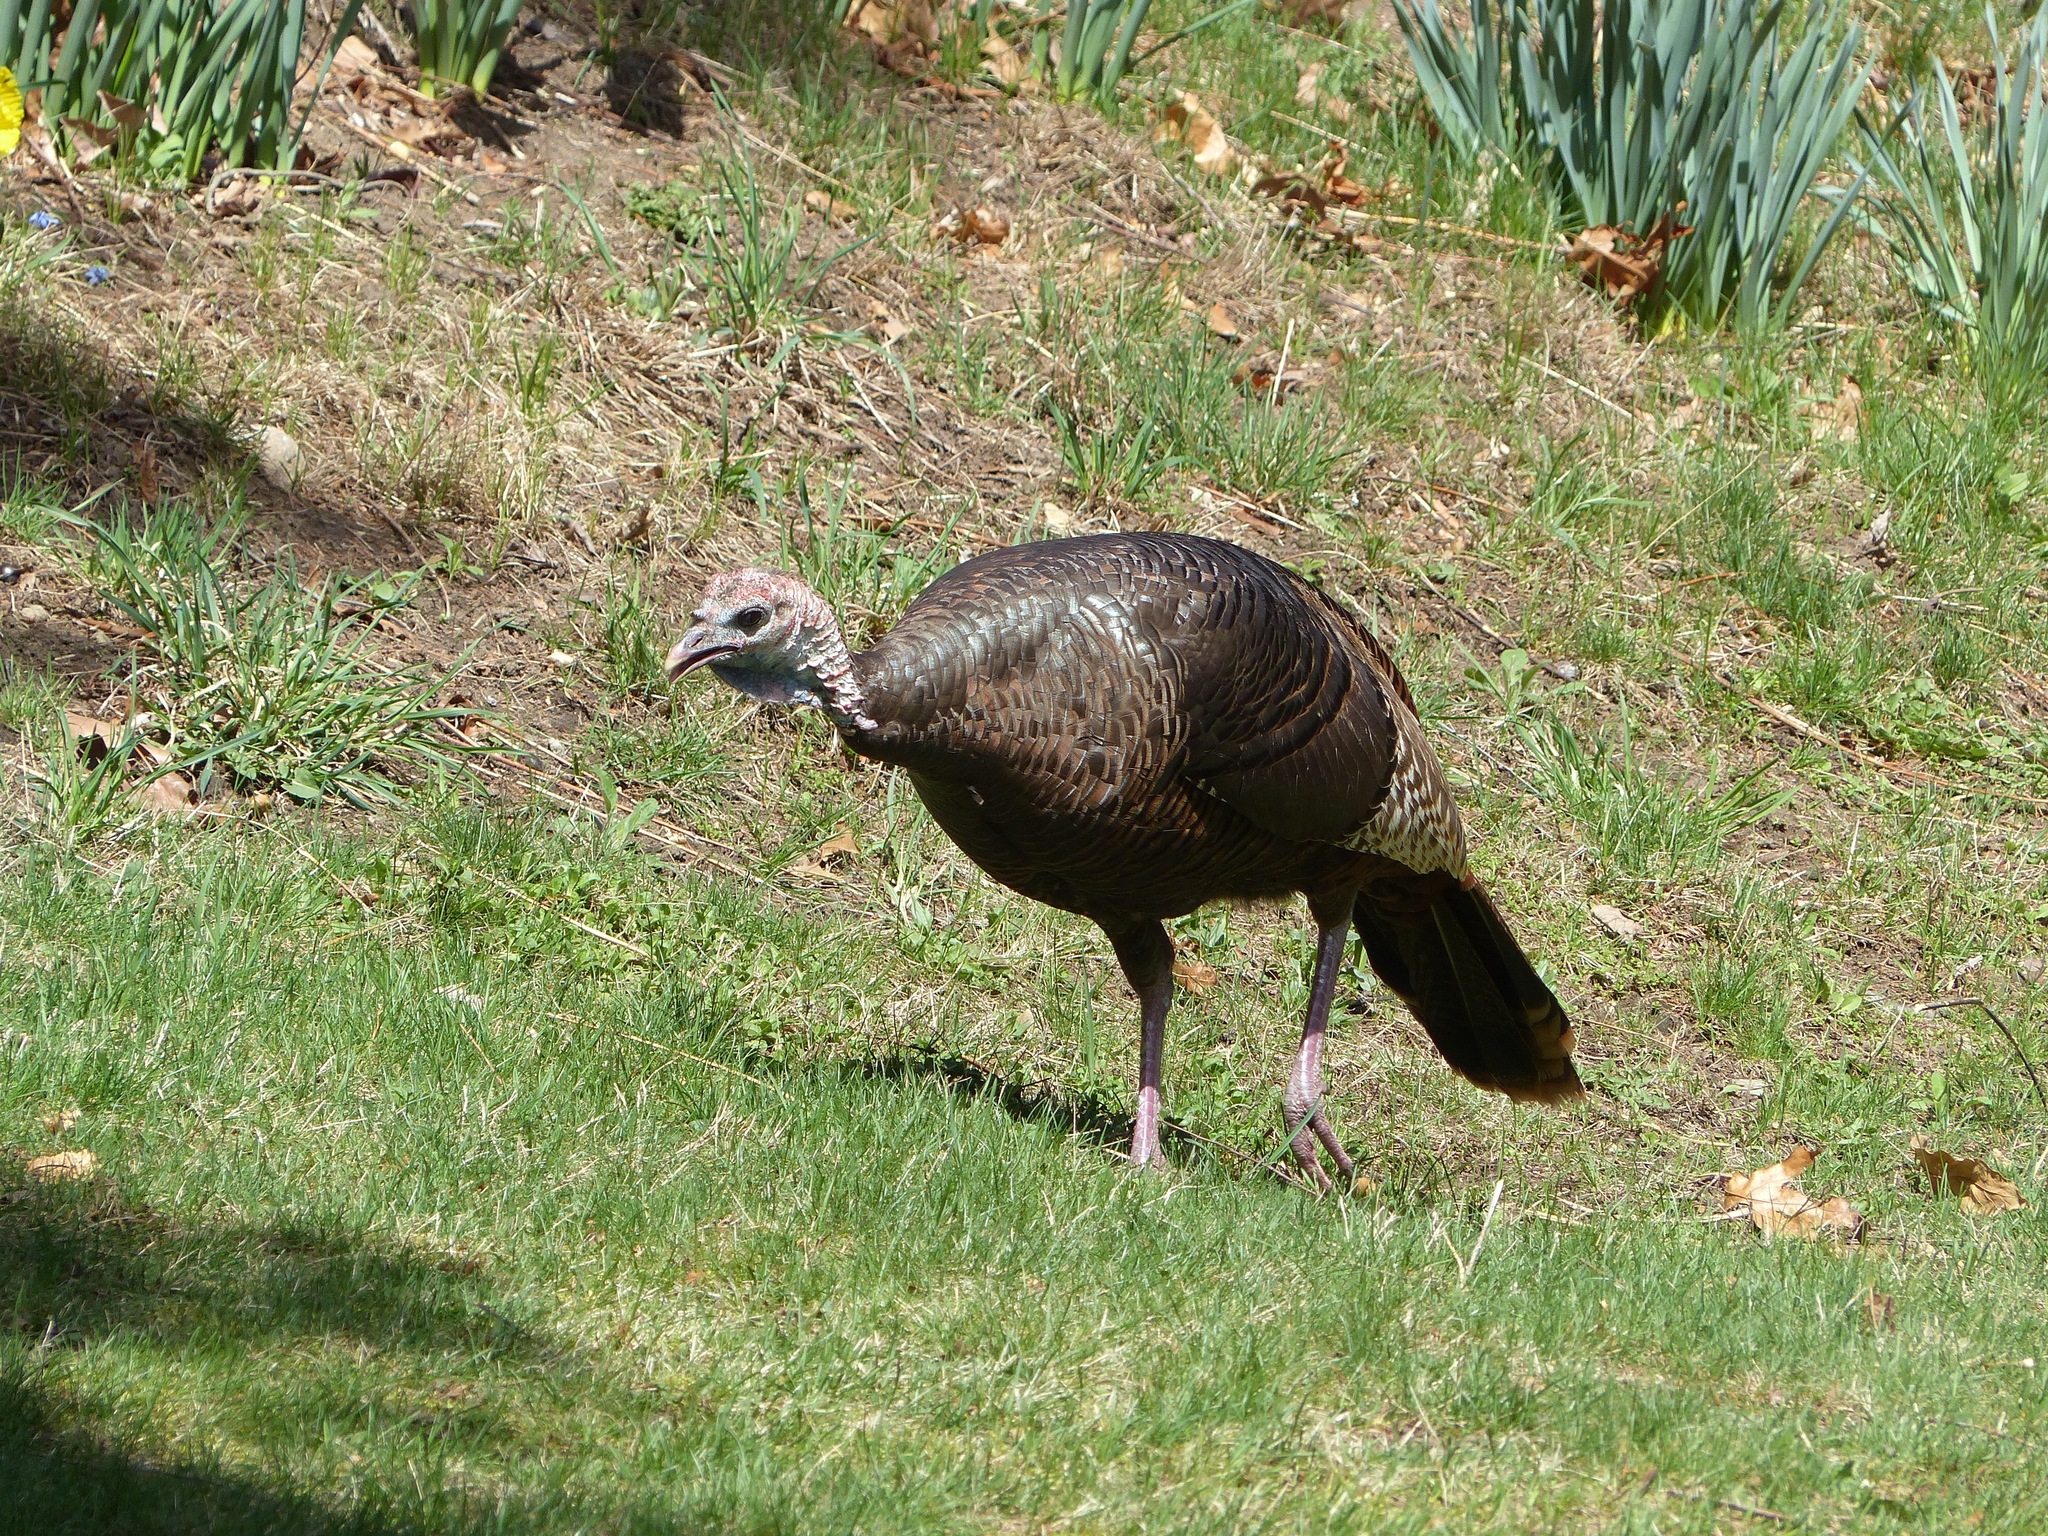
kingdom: Animalia
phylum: Chordata
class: Aves
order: Galliformes
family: Phasianidae
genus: Meleagris
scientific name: Meleagris gallopavo
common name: Wild turkey
